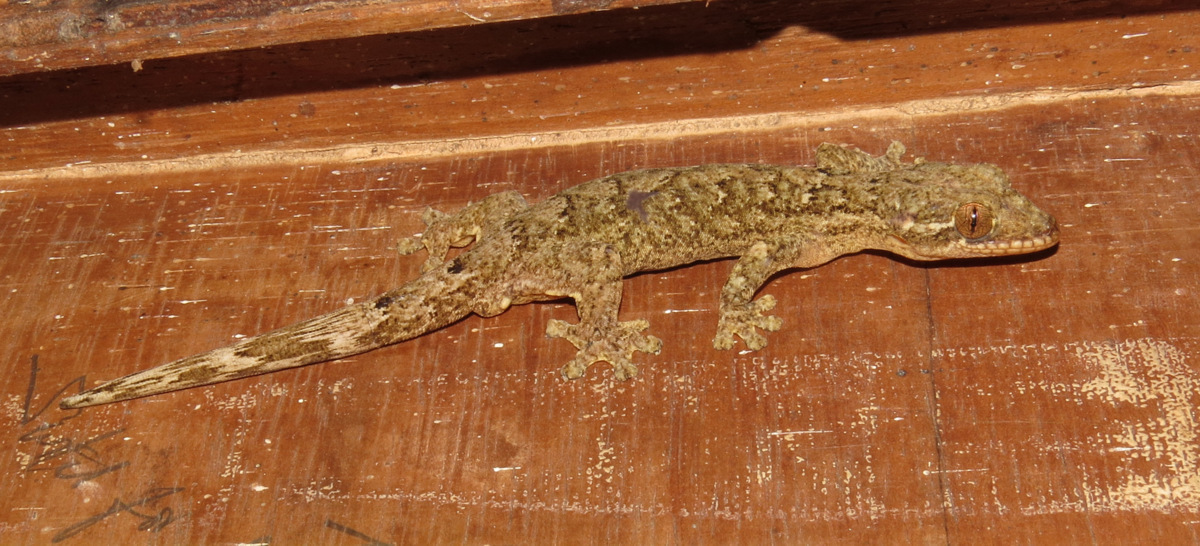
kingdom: Animalia
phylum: Chordata
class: Squamata
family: Phyllodactylidae
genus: Thecadactylus
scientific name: Thecadactylus rapicauda
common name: Turnip-tailed gecko
